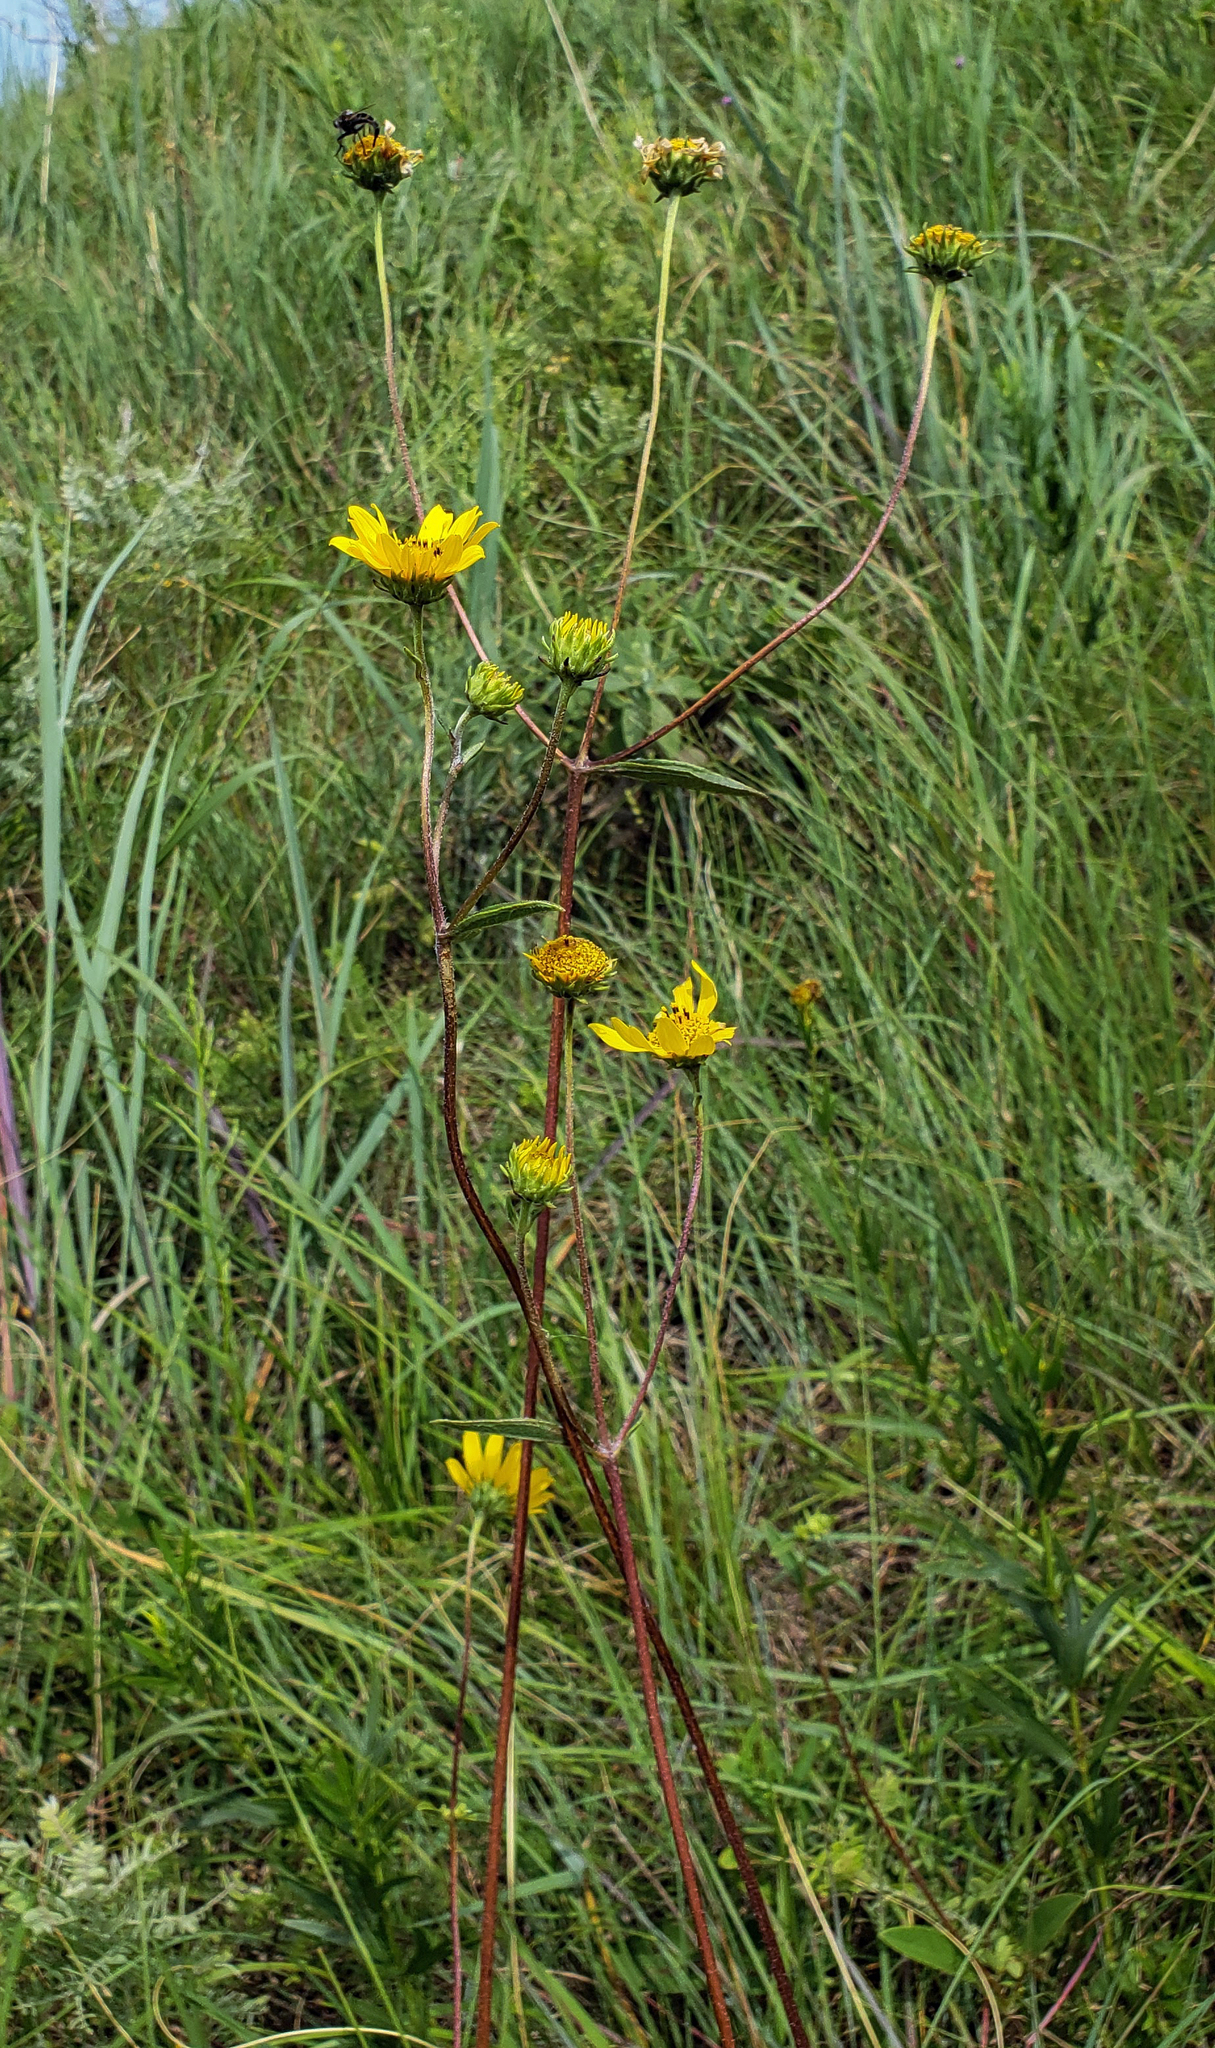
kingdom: Plantae
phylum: Tracheophyta
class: Magnoliopsida
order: Asterales
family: Asteraceae
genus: Helianthus
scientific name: Helianthus occidentalis
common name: Western sunflower
